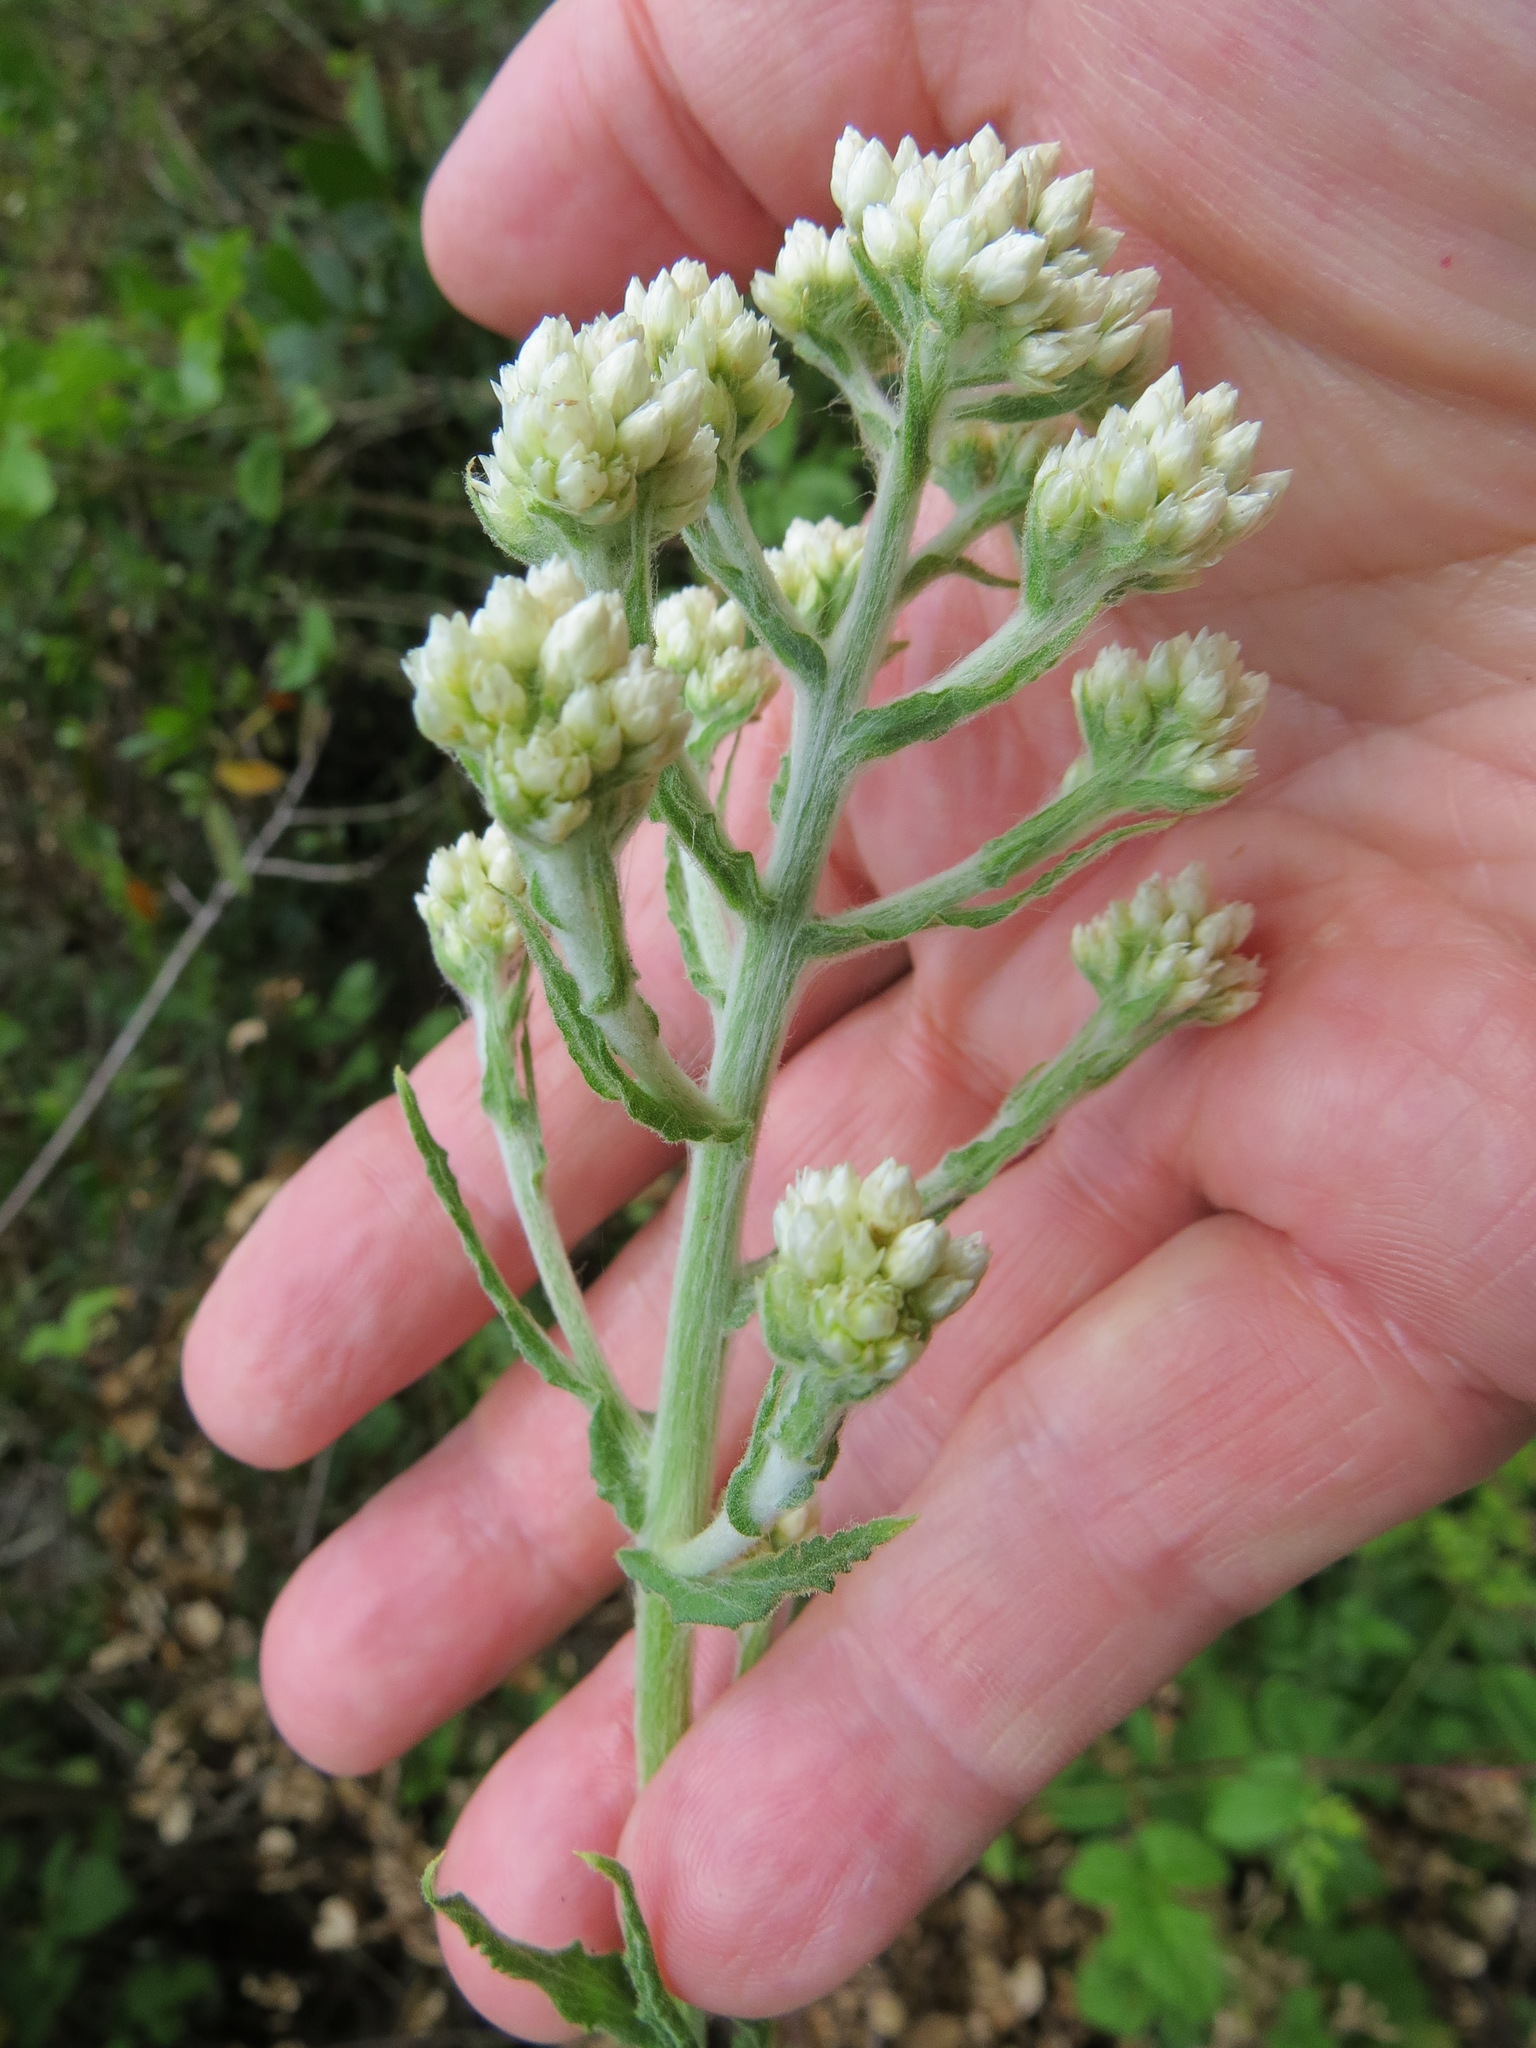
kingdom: Plantae
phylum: Tracheophyta
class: Magnoliopsida
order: Asterales
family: Asteraceae
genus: Pseudognaphalium
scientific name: Pseudognaphalium californicum
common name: California rabbit-tobacco
